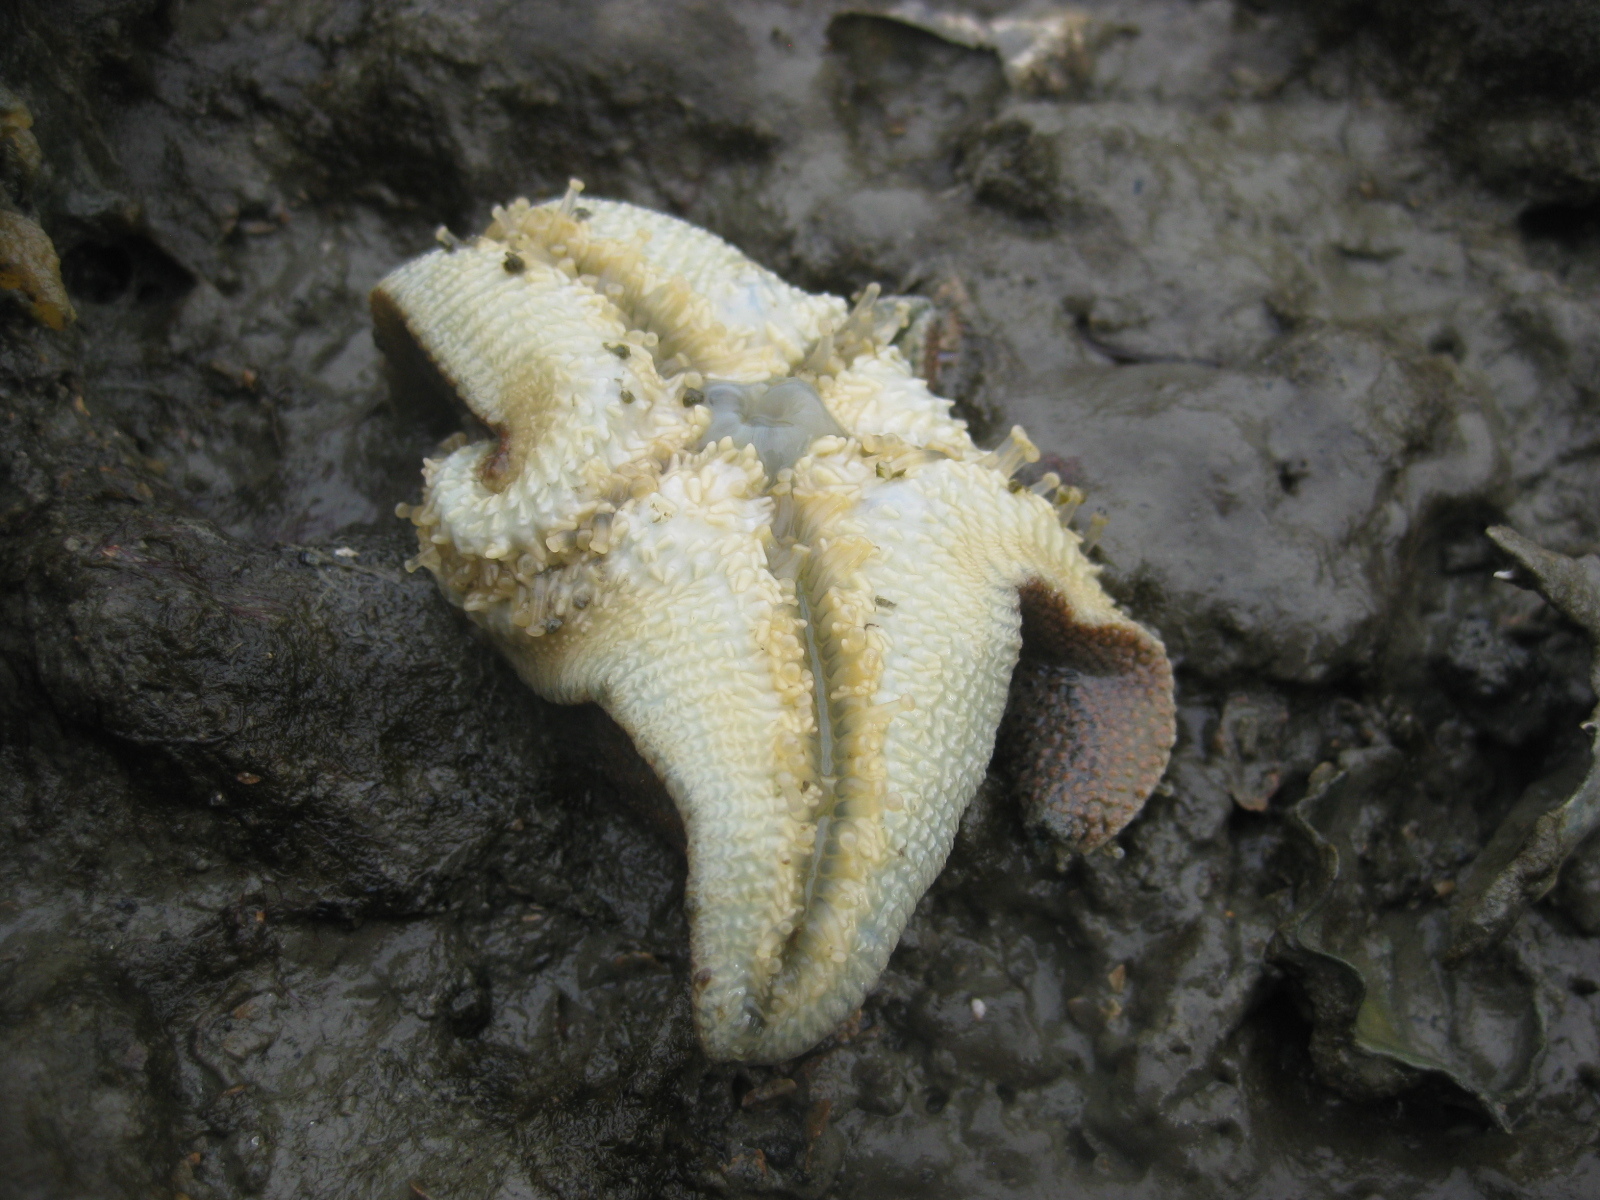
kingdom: Animalia
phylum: Echinodermata
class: Asteroidea
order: Valvatida
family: Asterinidae
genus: Patiriella
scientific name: Patiriella regularis
